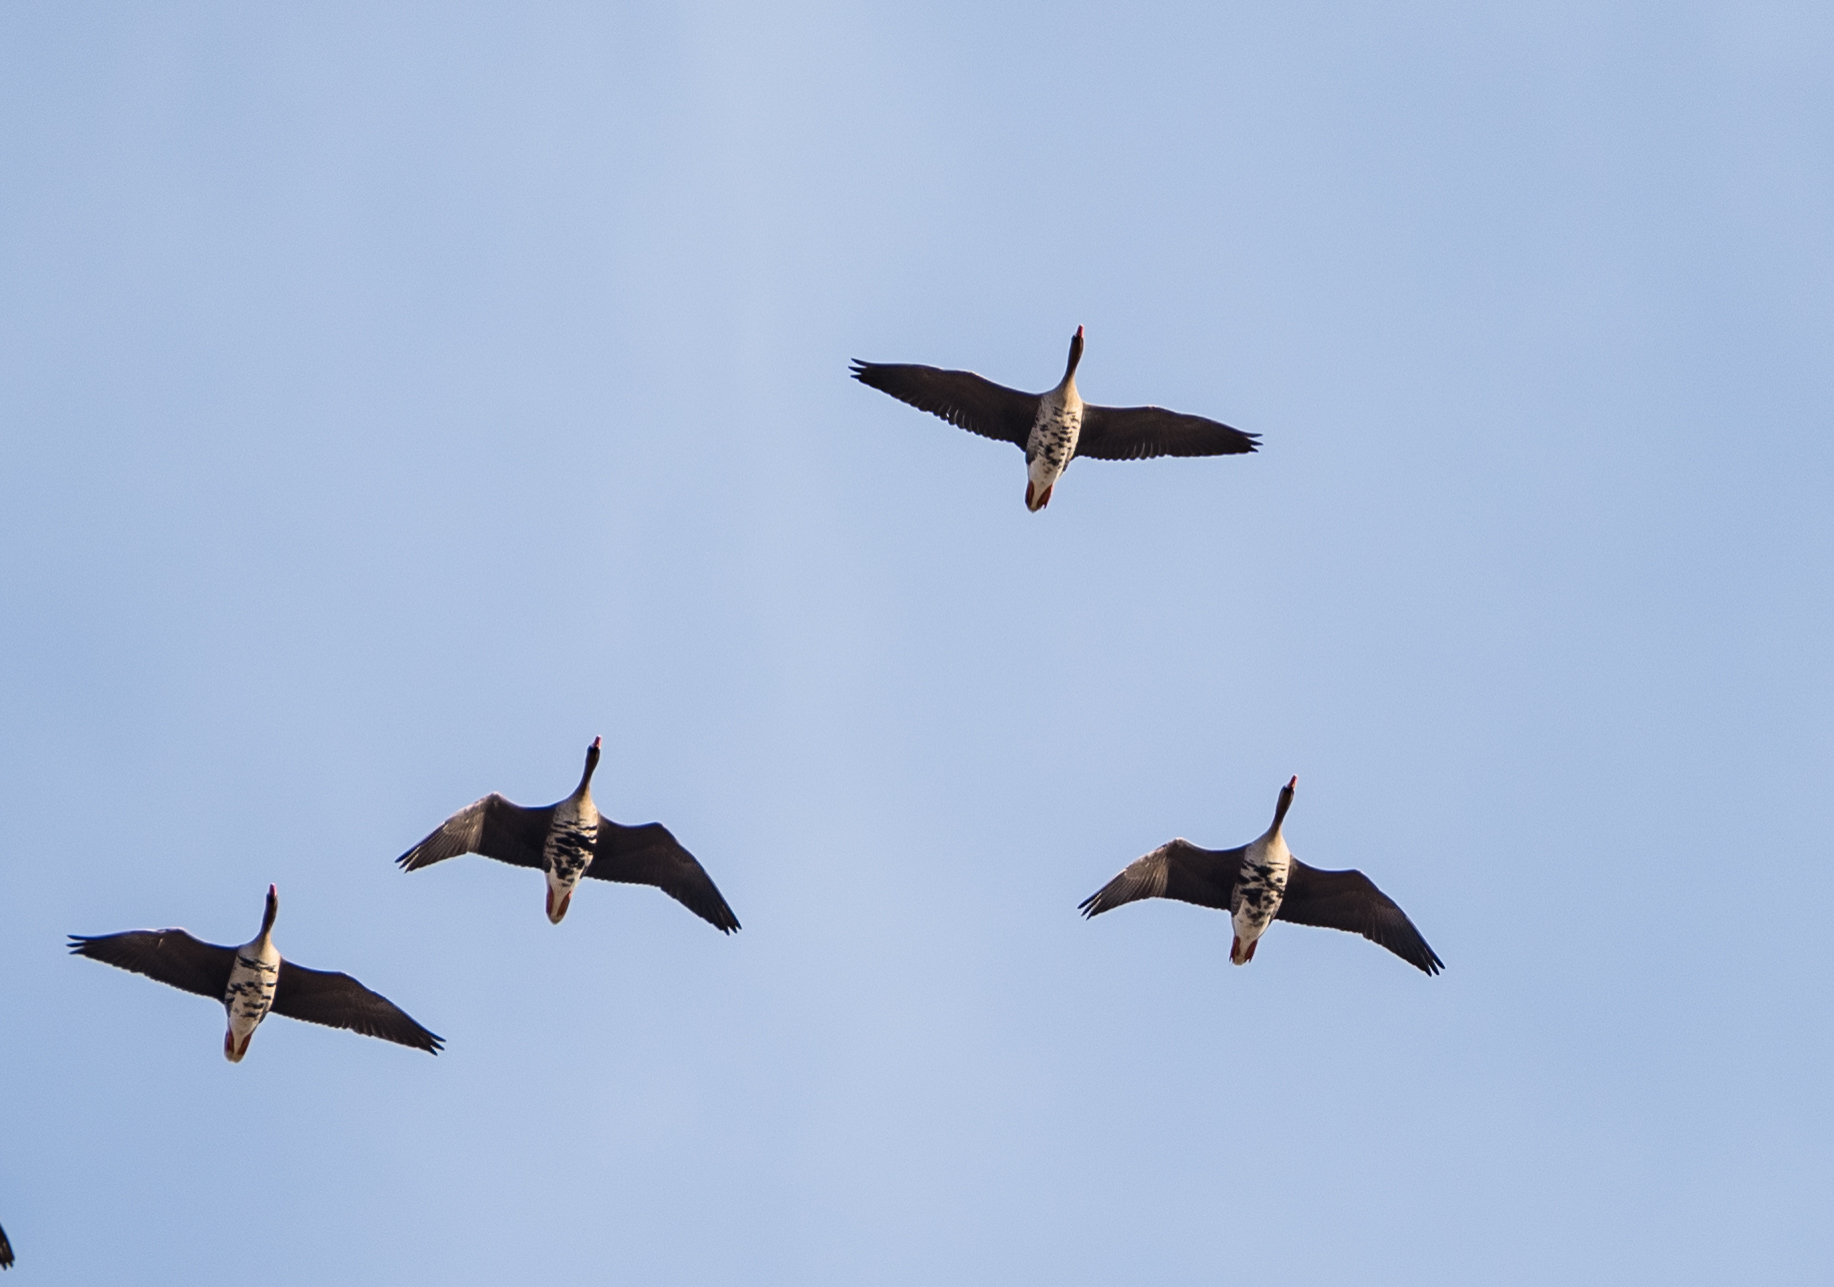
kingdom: Animalia
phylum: Chordata
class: Aves
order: Anseriformes
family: Anatidae
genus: Anser
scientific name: Anser albifrons
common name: Greater white-fronted goose
